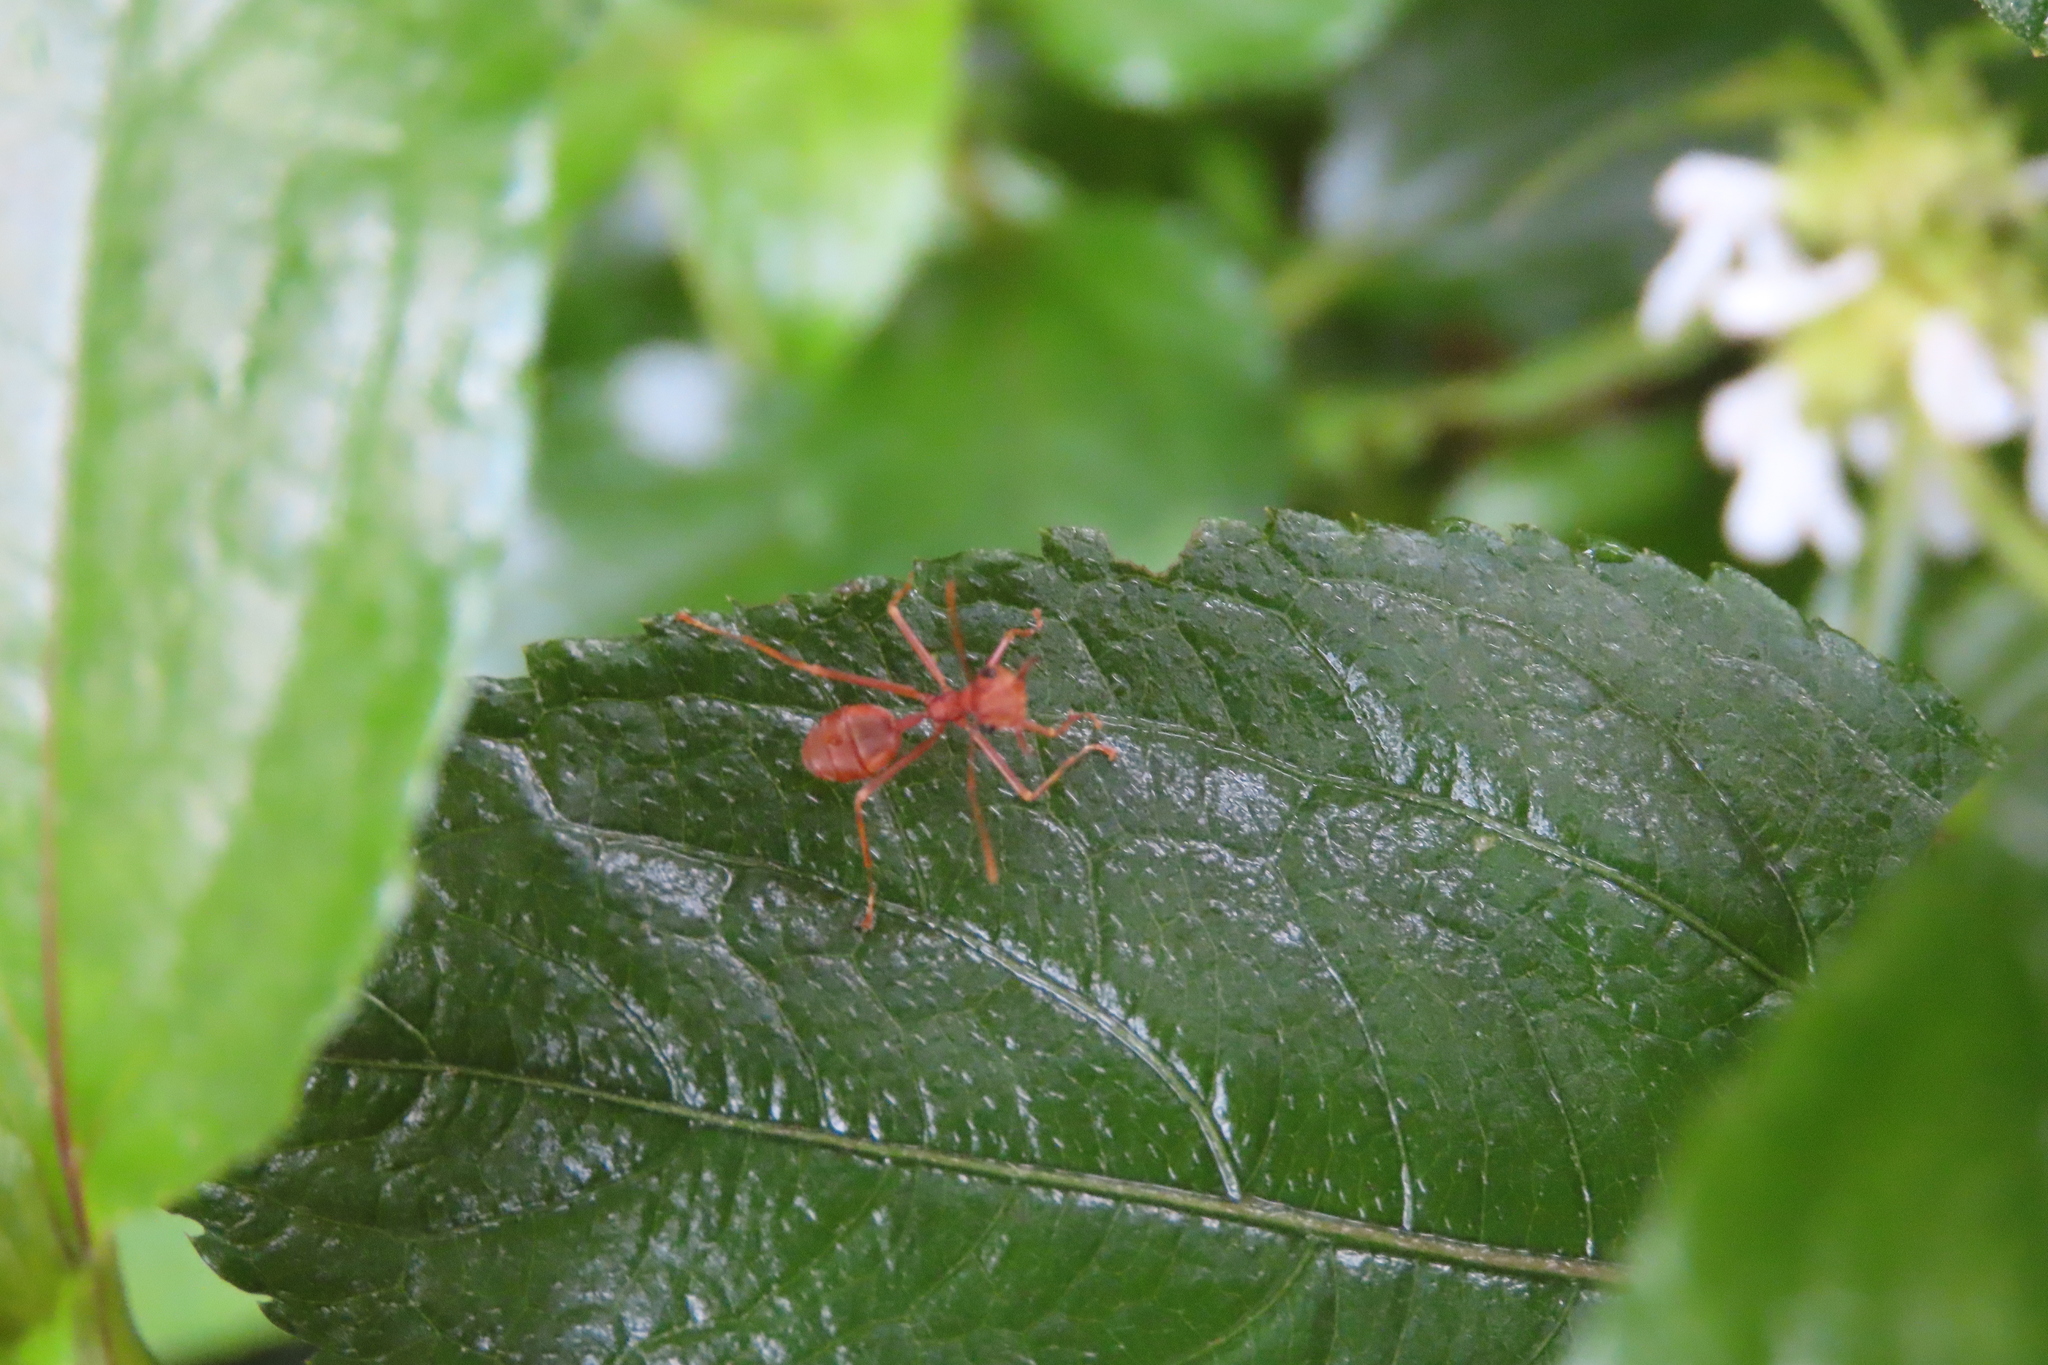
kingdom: Animalia
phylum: Arthropoda
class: Insecta
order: Hymenoptera
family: Formicidae
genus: Oecophylla
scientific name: Oecophylla smaragdina
